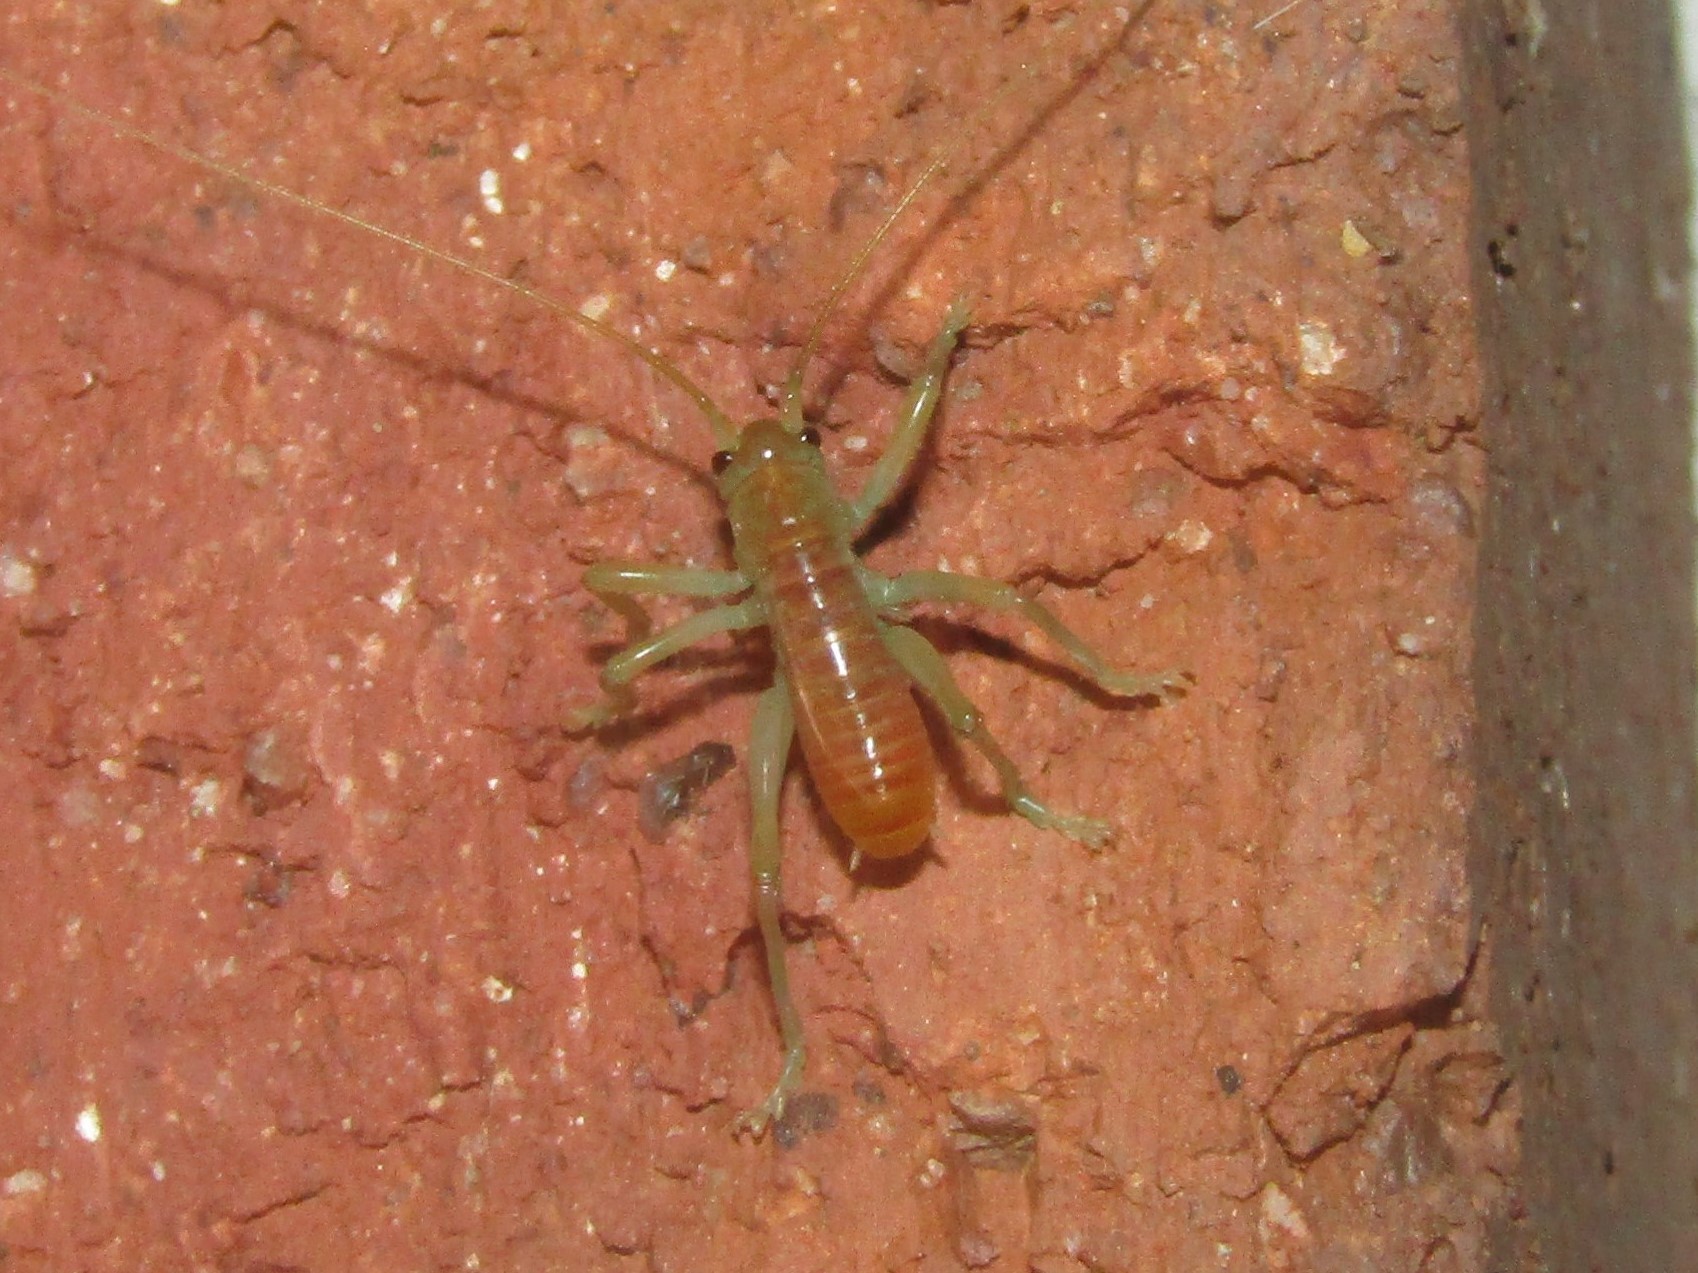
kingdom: Animalia
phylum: Arthropoda
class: Insecta
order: Orthoptera
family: Gryllacrididae
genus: Camptonotus
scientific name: Camptonotus carolinensis
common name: Carolina leaf-roller
